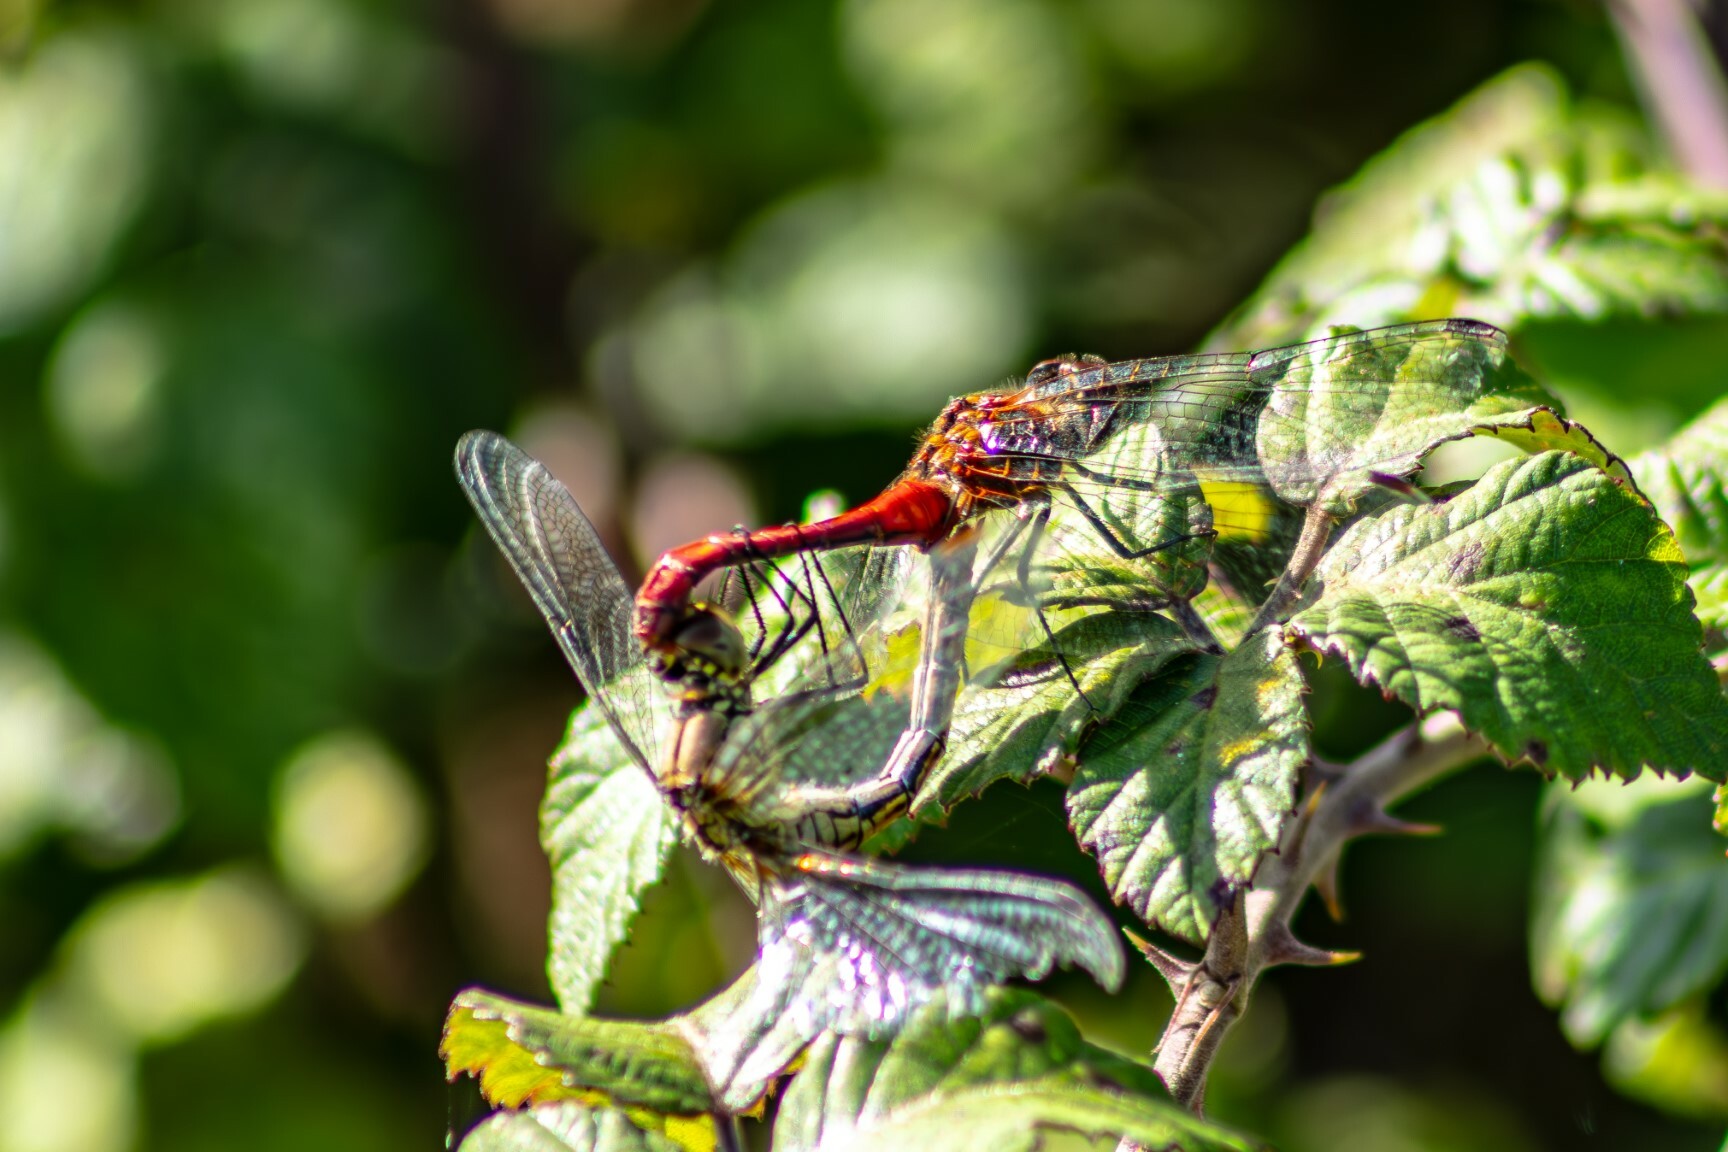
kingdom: Animalia
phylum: Arthropoda
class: Insecta
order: Odonata
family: Libellulidae
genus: Sympetrum
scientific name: Sympetrum sanguineum
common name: Ruddy darter
